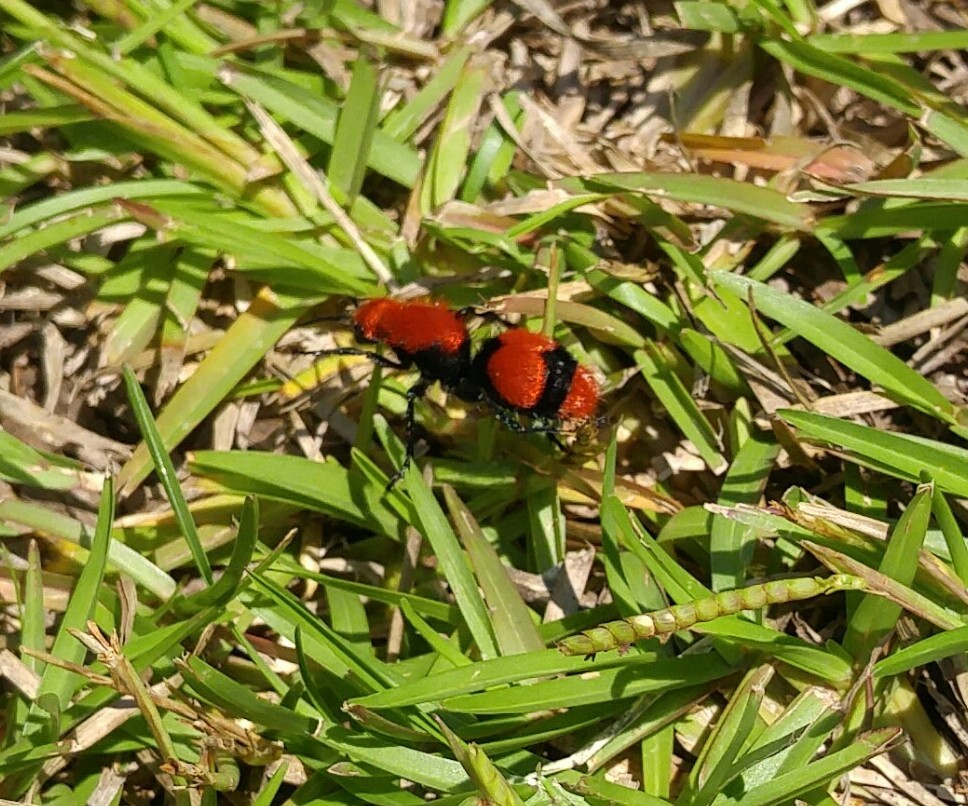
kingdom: Animalia
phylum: Arthropoda
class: Insecta
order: Hymenoptera
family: Mutillidae
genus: Dasymutilla
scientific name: Dasymutilla occidentalis
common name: Common eastern velvet ant
